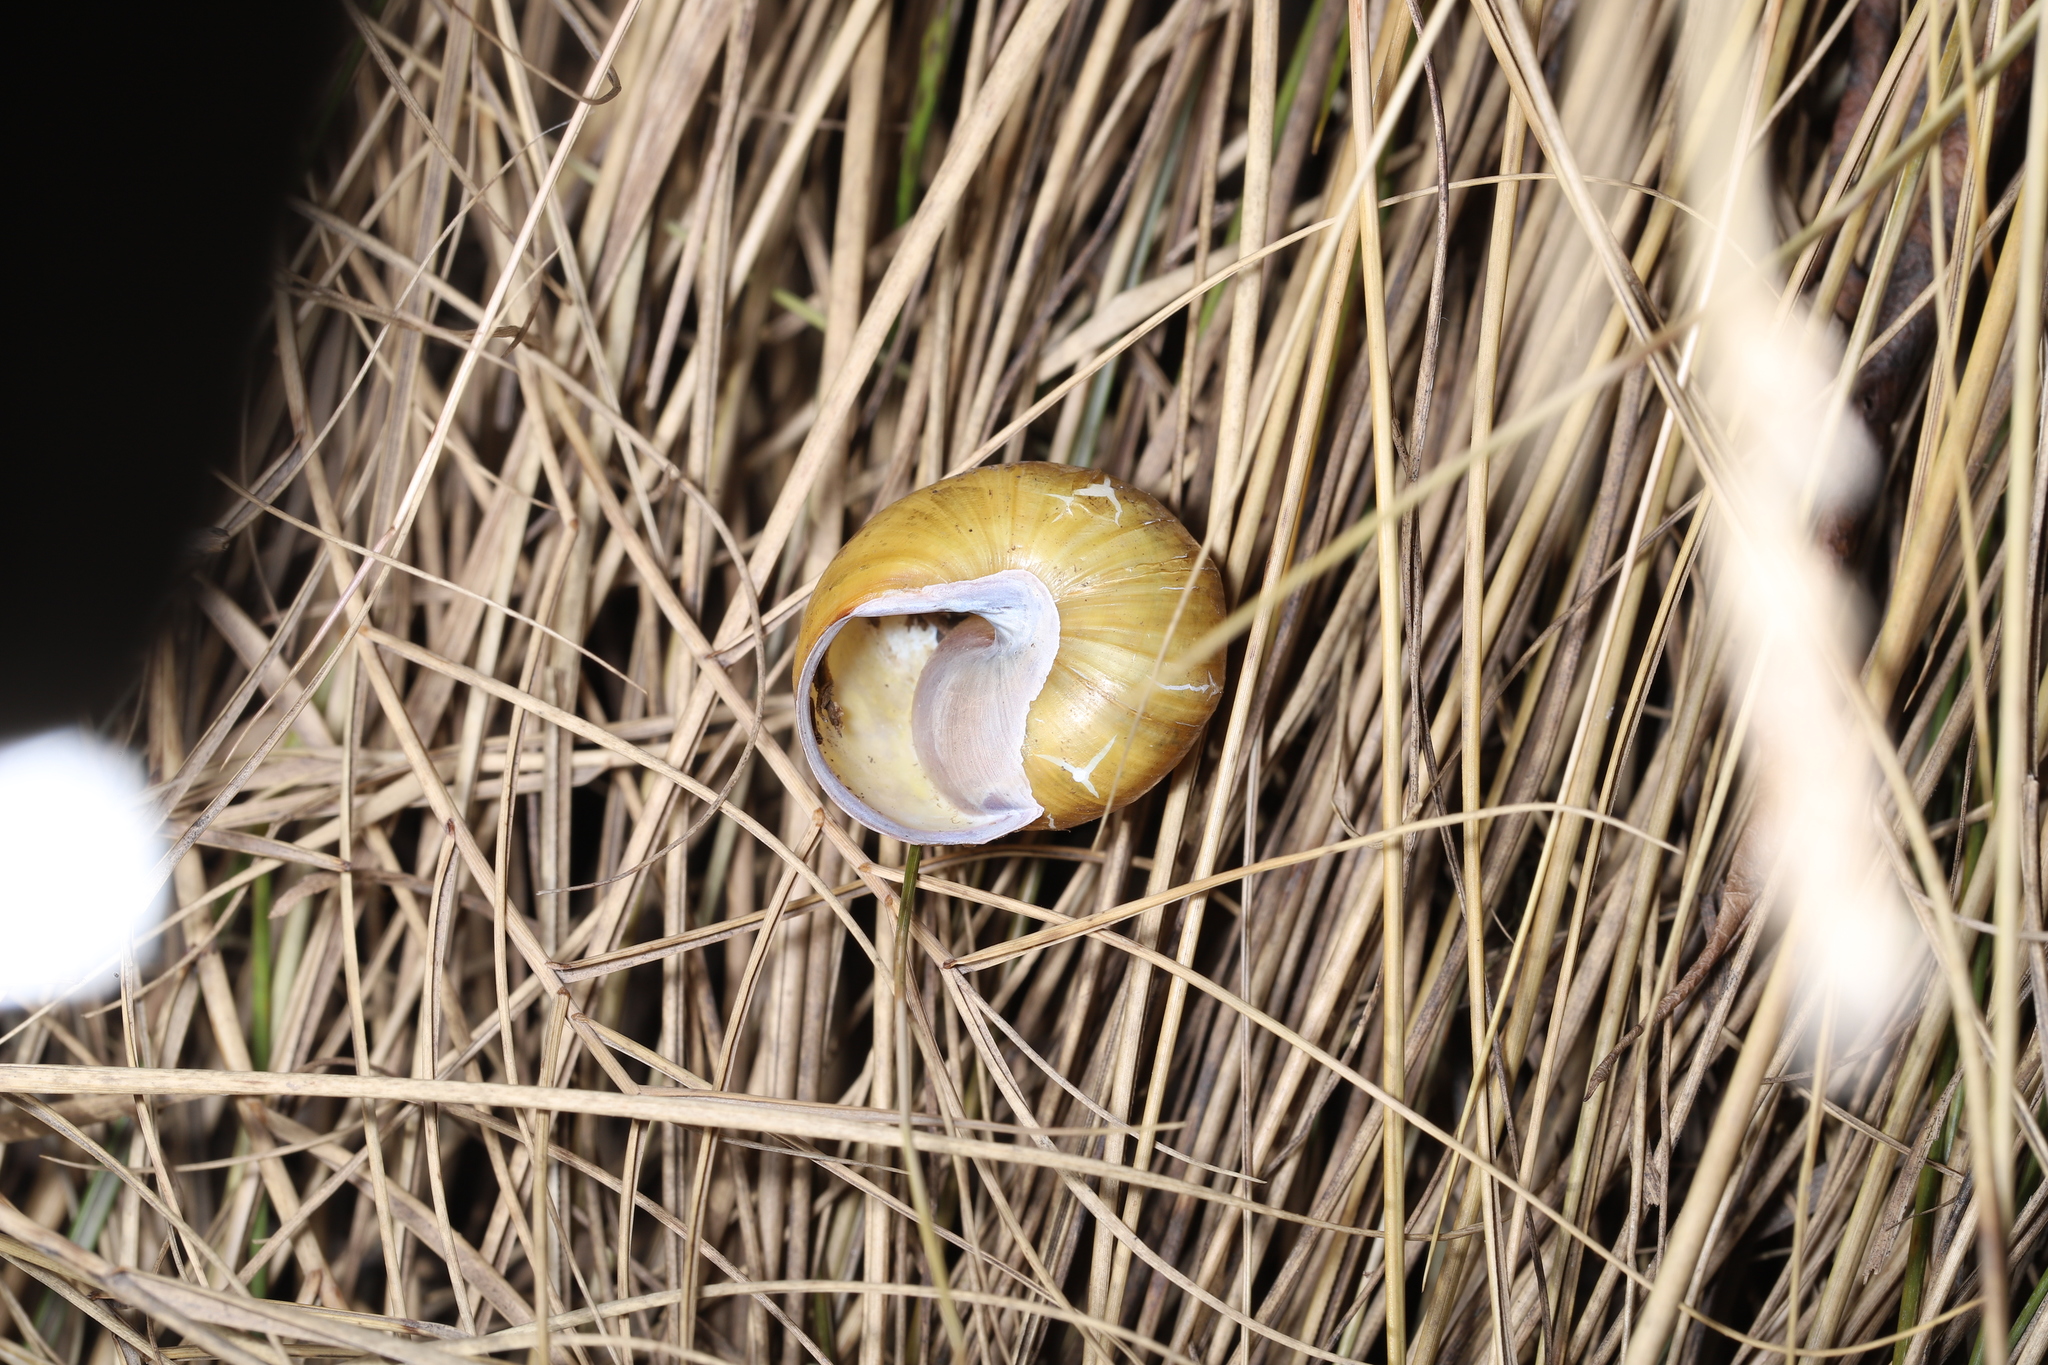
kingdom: Animalia
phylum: Mollusca
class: Gastropoda
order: Stylommatophora
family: Helicidae
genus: Cepaea
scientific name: Cepaea nemoralis
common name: Grovesnail
